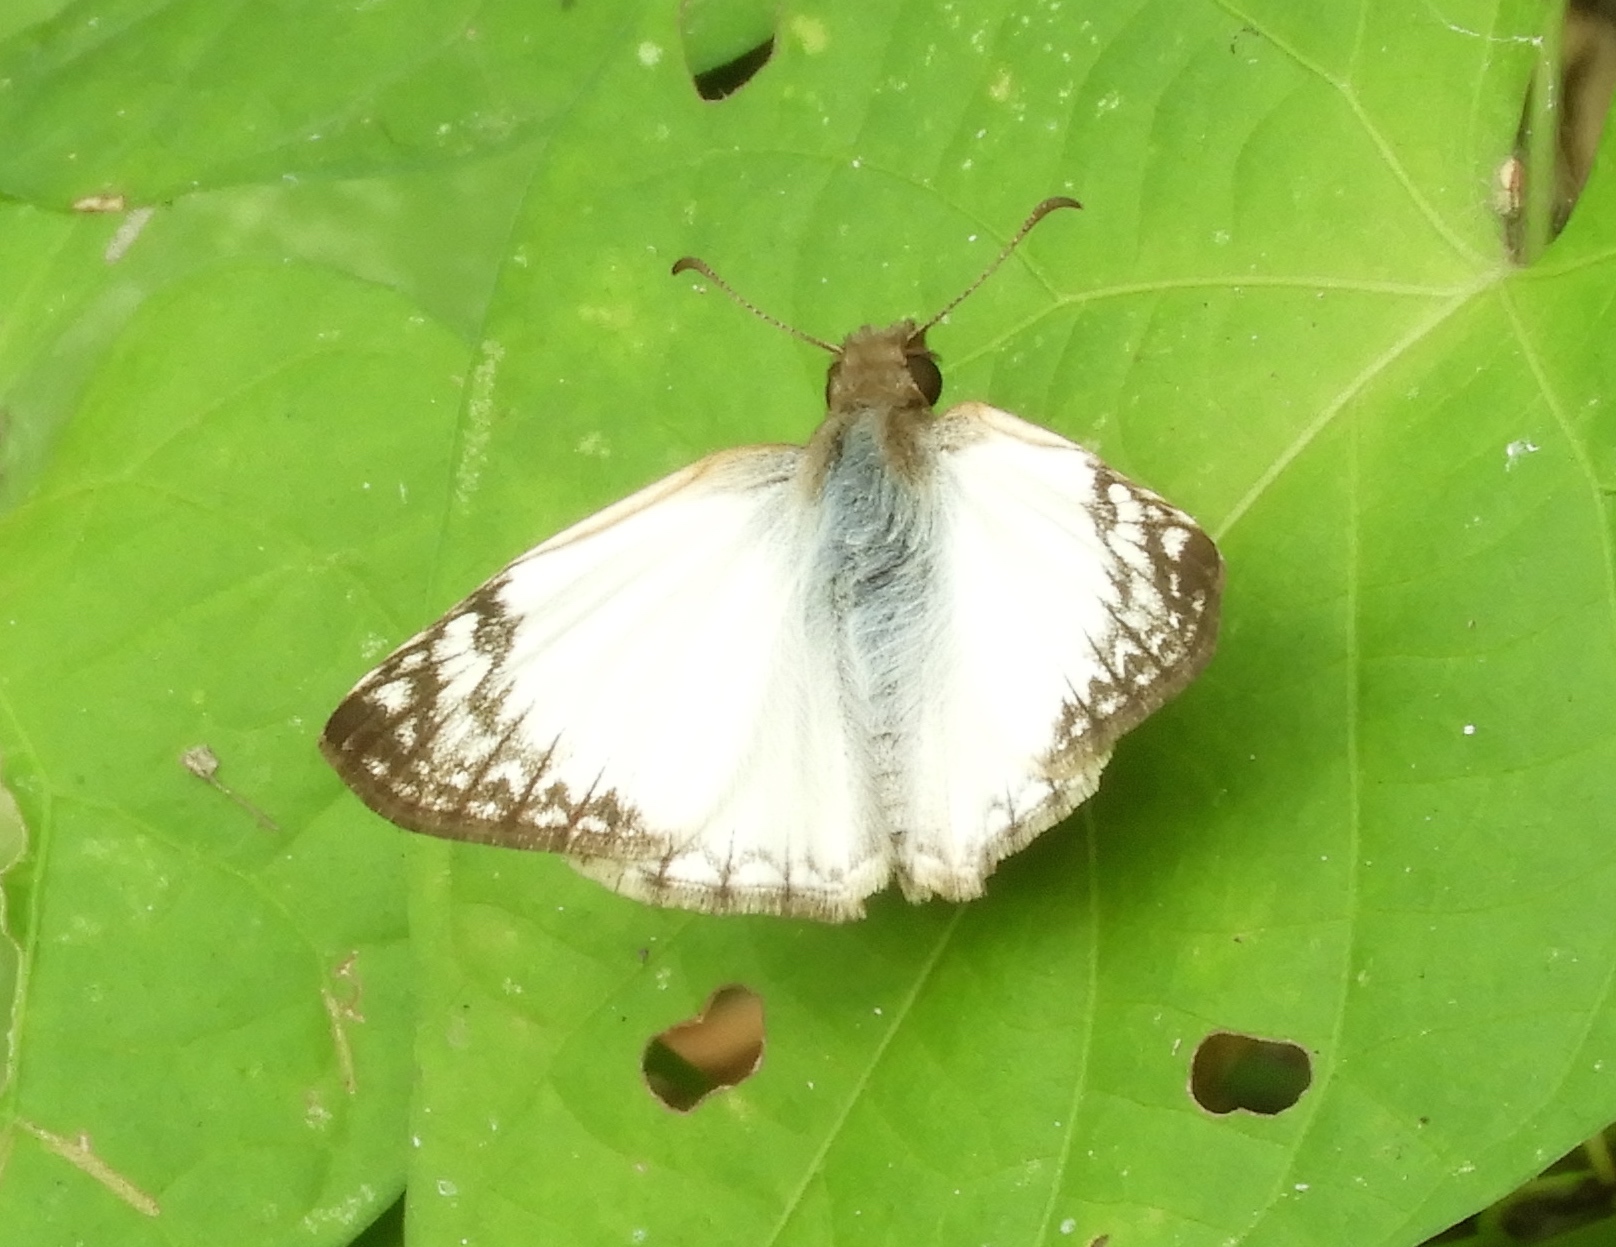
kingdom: Animalia
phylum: Arthropoda
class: Insecta
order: Lepidoptera
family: Hesperiidae
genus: Heliopetes
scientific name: Heliopetes laviana
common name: Laviana white-skipper
